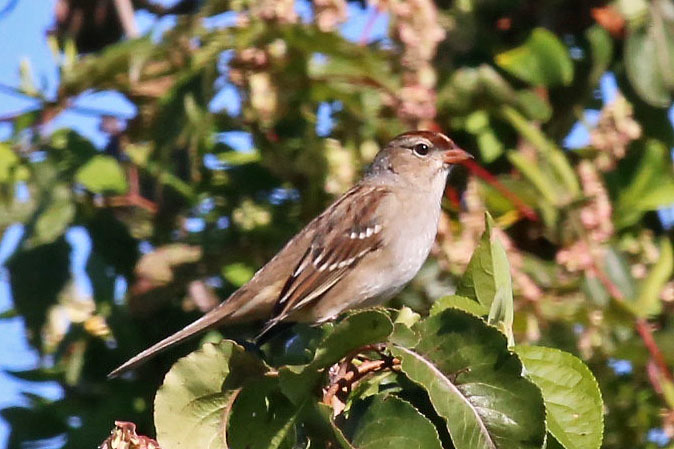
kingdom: Animalia
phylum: Chordata
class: Aves
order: Passeriformes
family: Passerellidae
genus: Zonotrichia
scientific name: Zonotrichia leucophrys
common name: White-crowned sparrow
